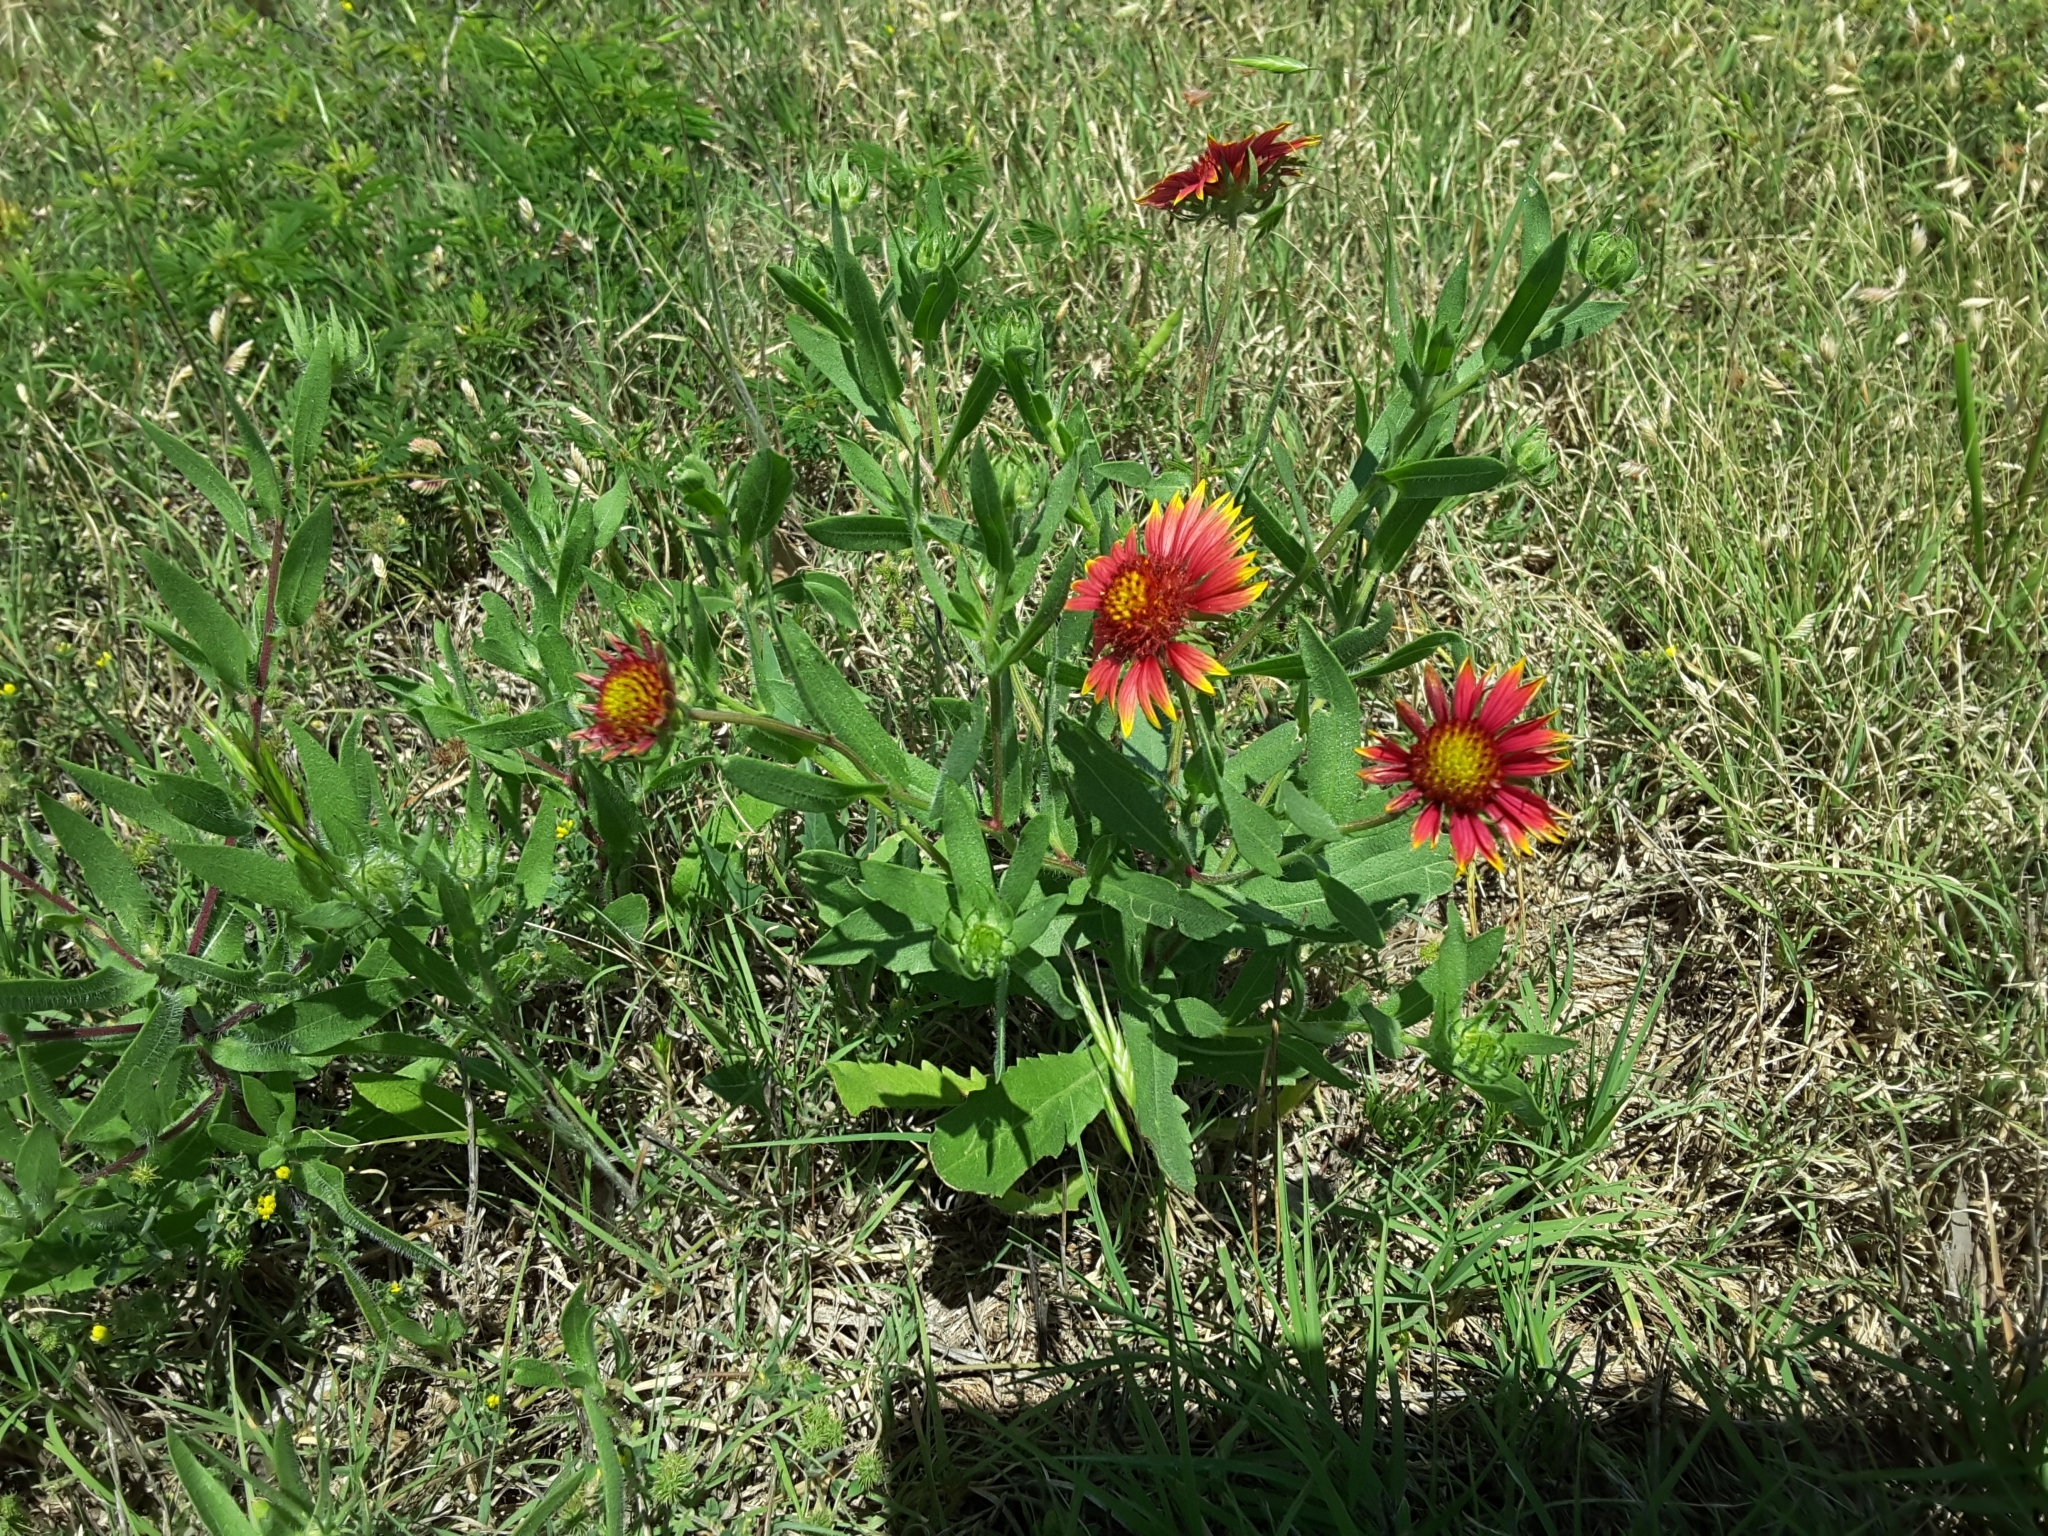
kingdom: Plantae
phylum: Tracheophyta
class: Magnoliopsida
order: Asterales
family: Asteraceae
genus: Gaillardia
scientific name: Gaillardia pulchella
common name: Firewheel
